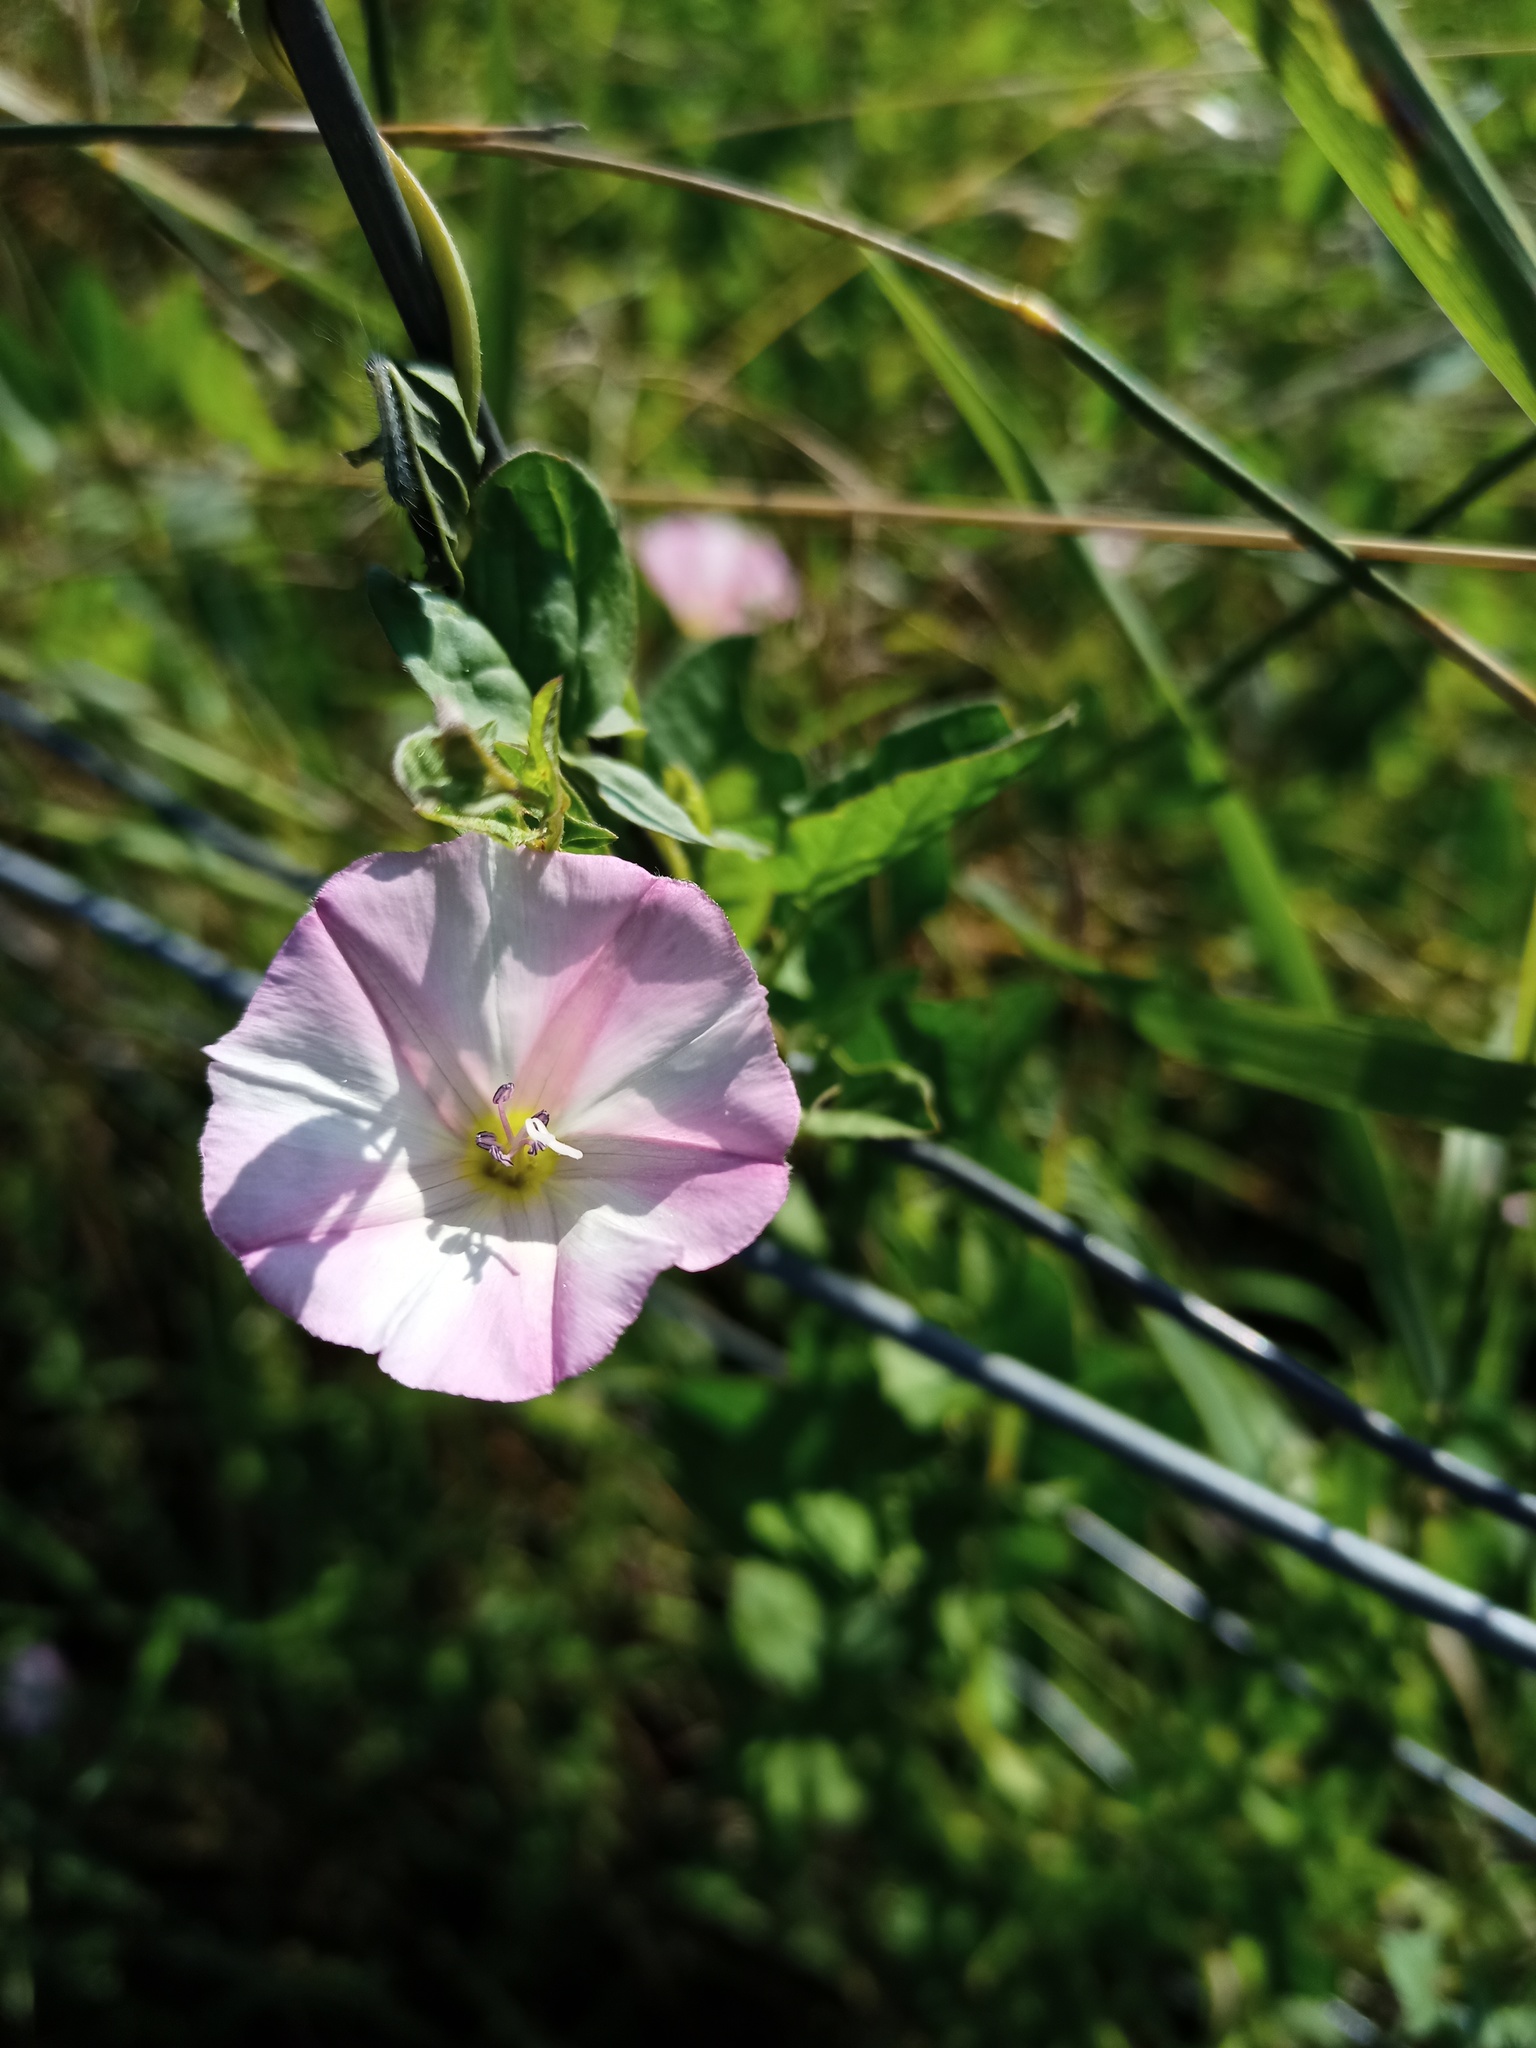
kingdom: Plantae
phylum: Tracheophyta
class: Magnoliopsida
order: Solanales
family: Convolvulaceae
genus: Convolvulus
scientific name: Convolvulus arvensis
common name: Field bindweed
